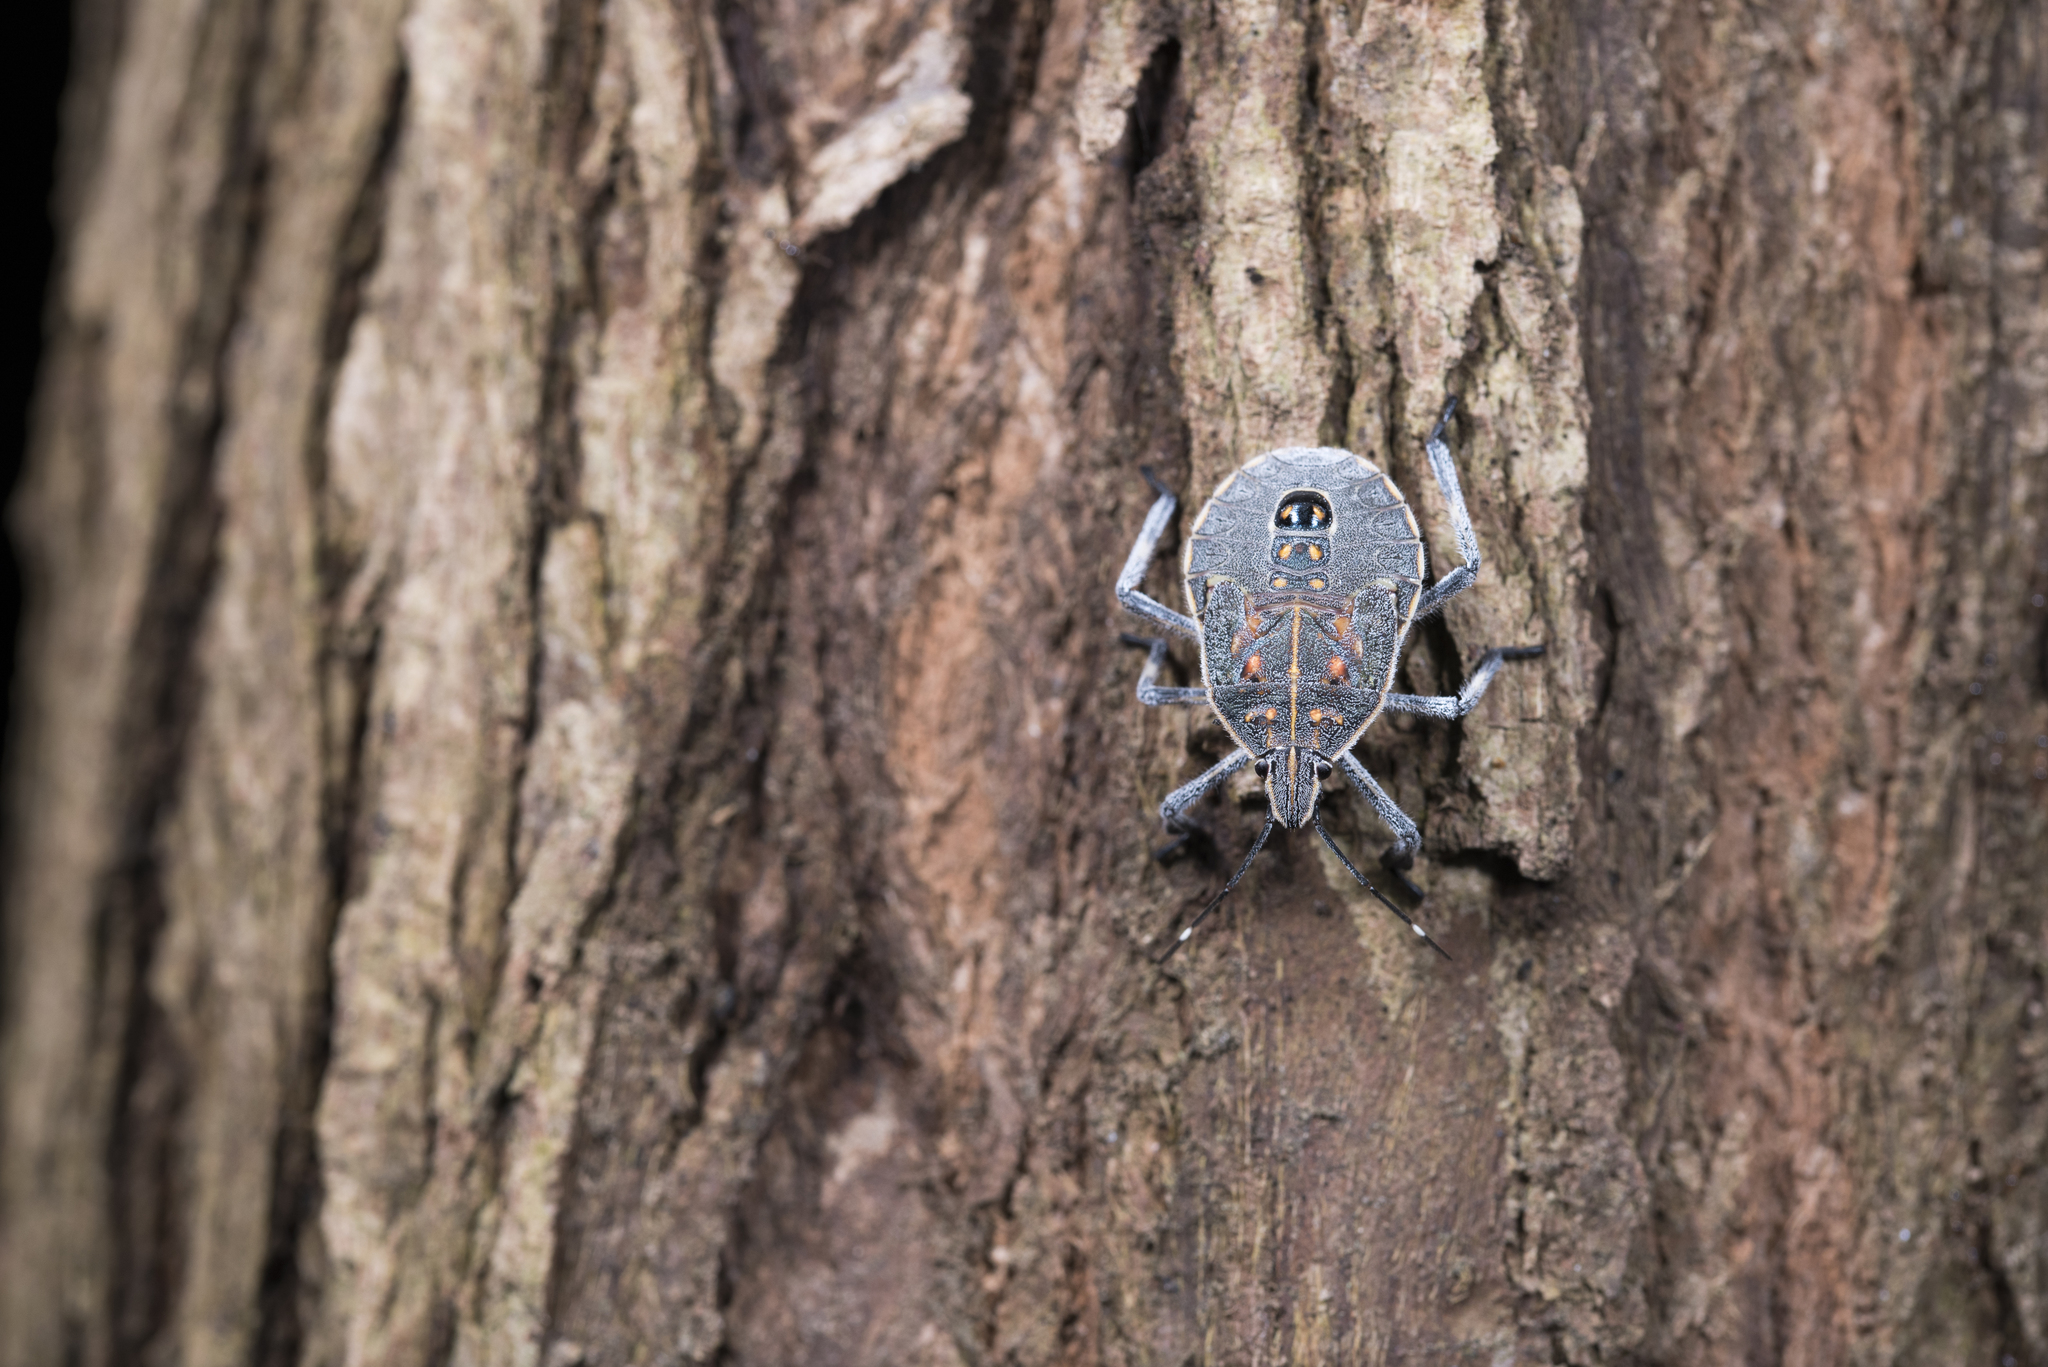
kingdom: Animalia
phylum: Arthropoda
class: Insecta
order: Hemiptera
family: Pentatomidae
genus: Erthesina
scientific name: Erthesina fullo
